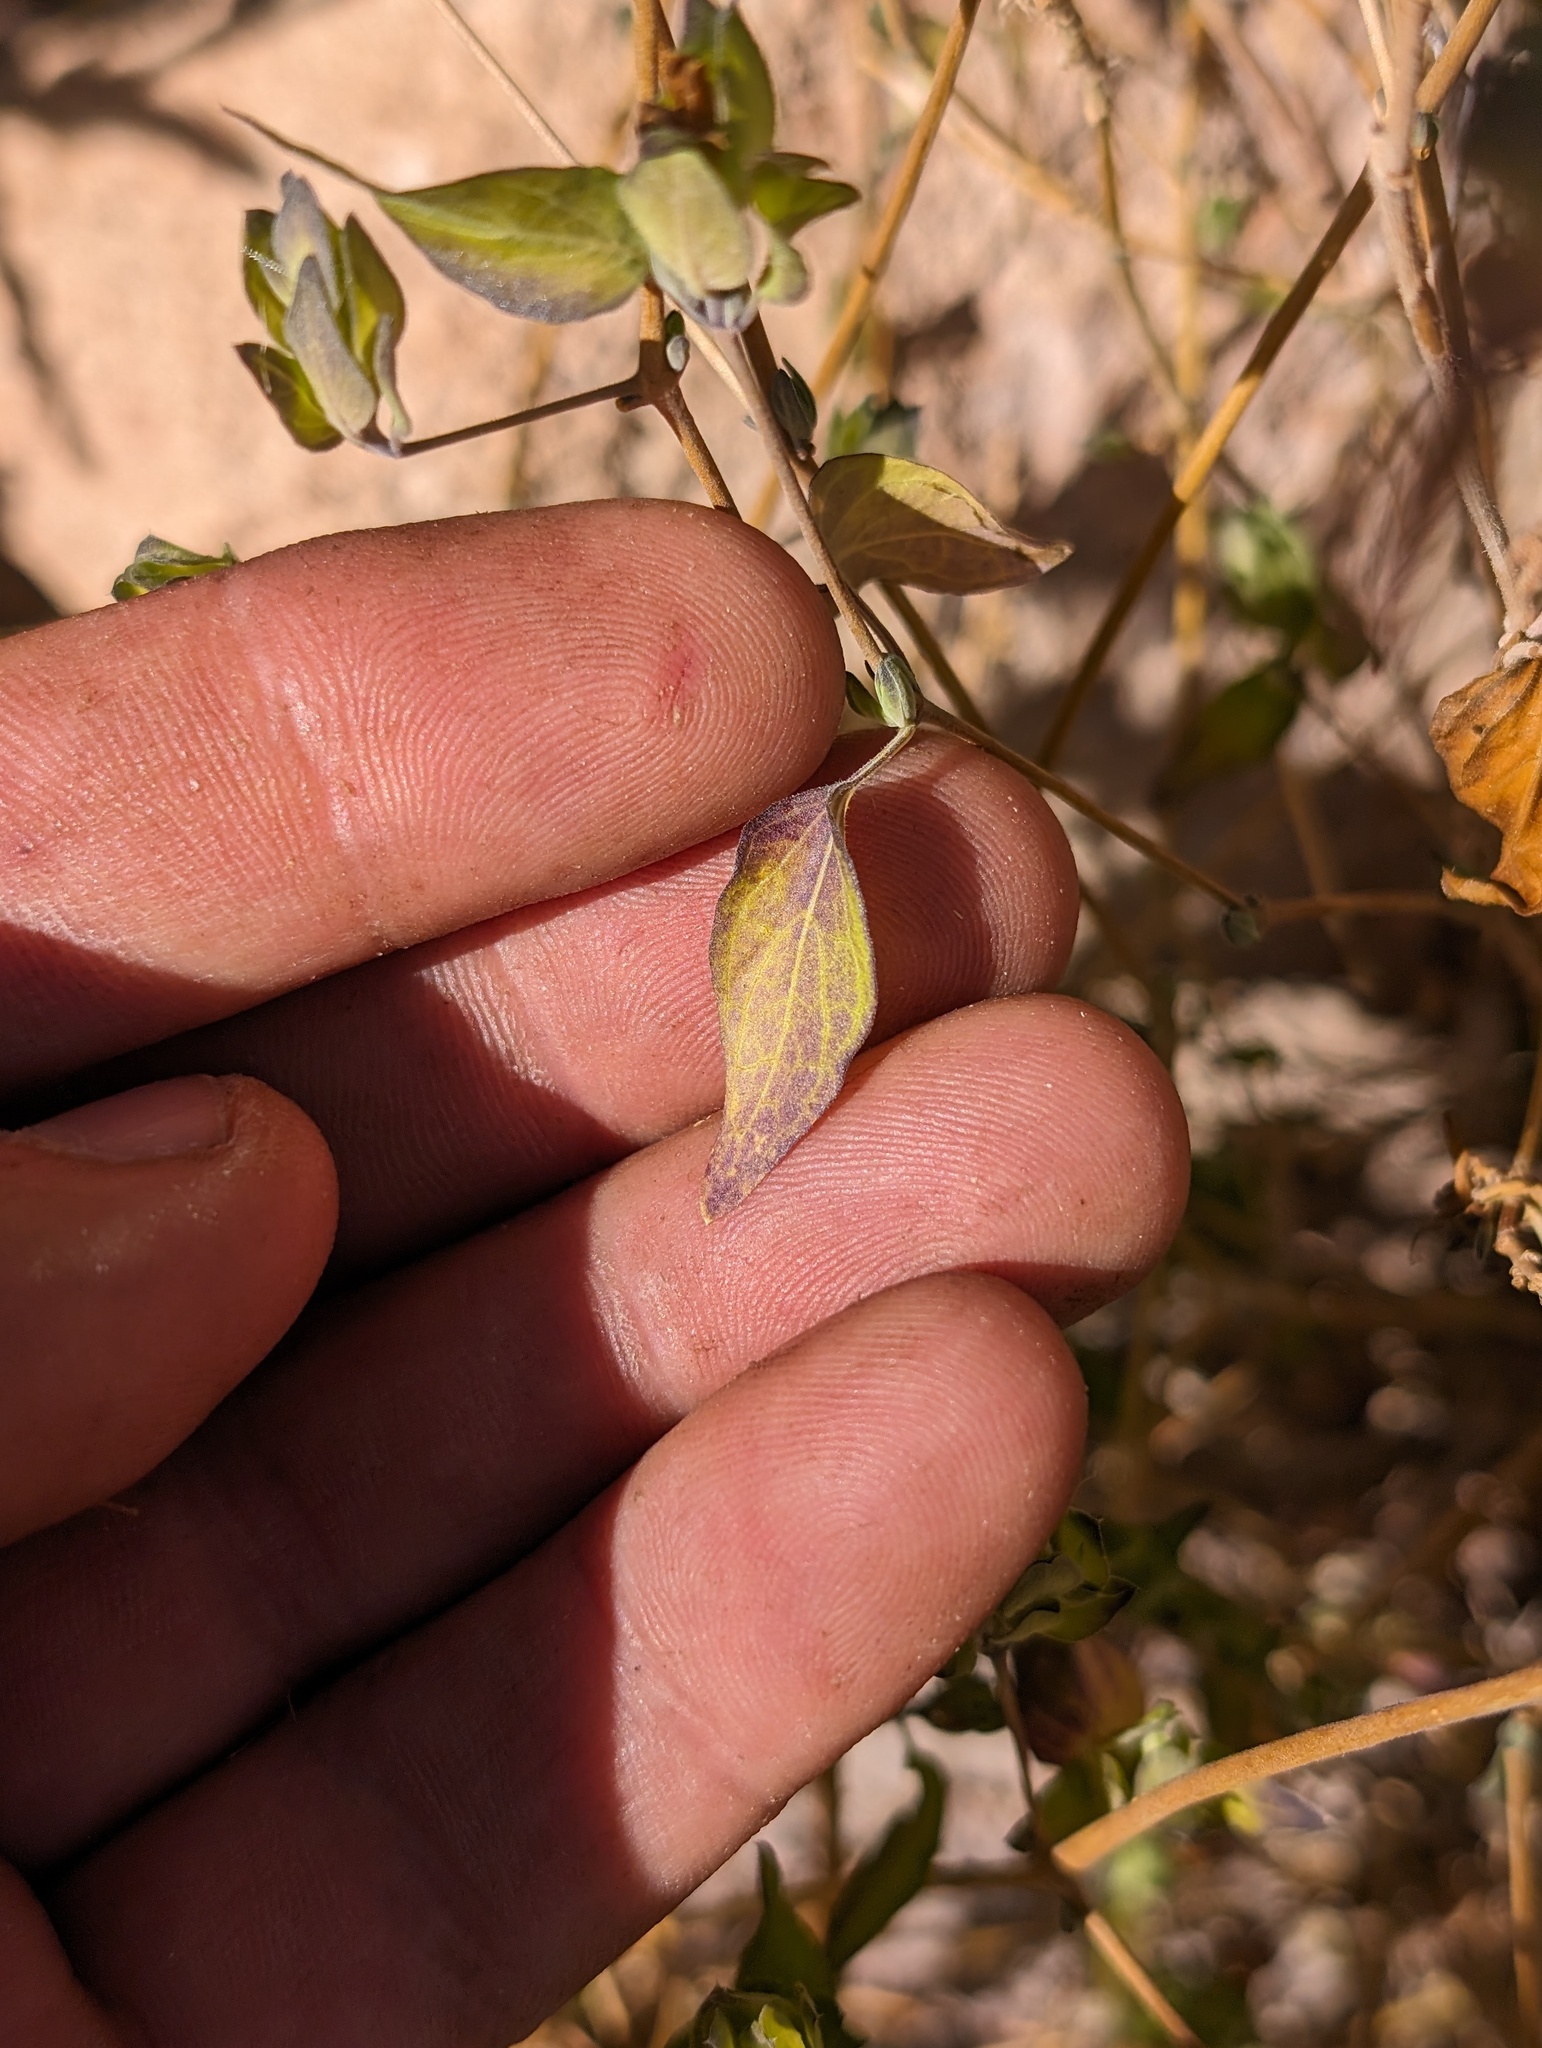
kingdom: Plantae
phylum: Tracheophyta
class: Magnoliopsida
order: Lamiales
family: Acanthaceae
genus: Tetramerium
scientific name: Tetramerium fruticosum
